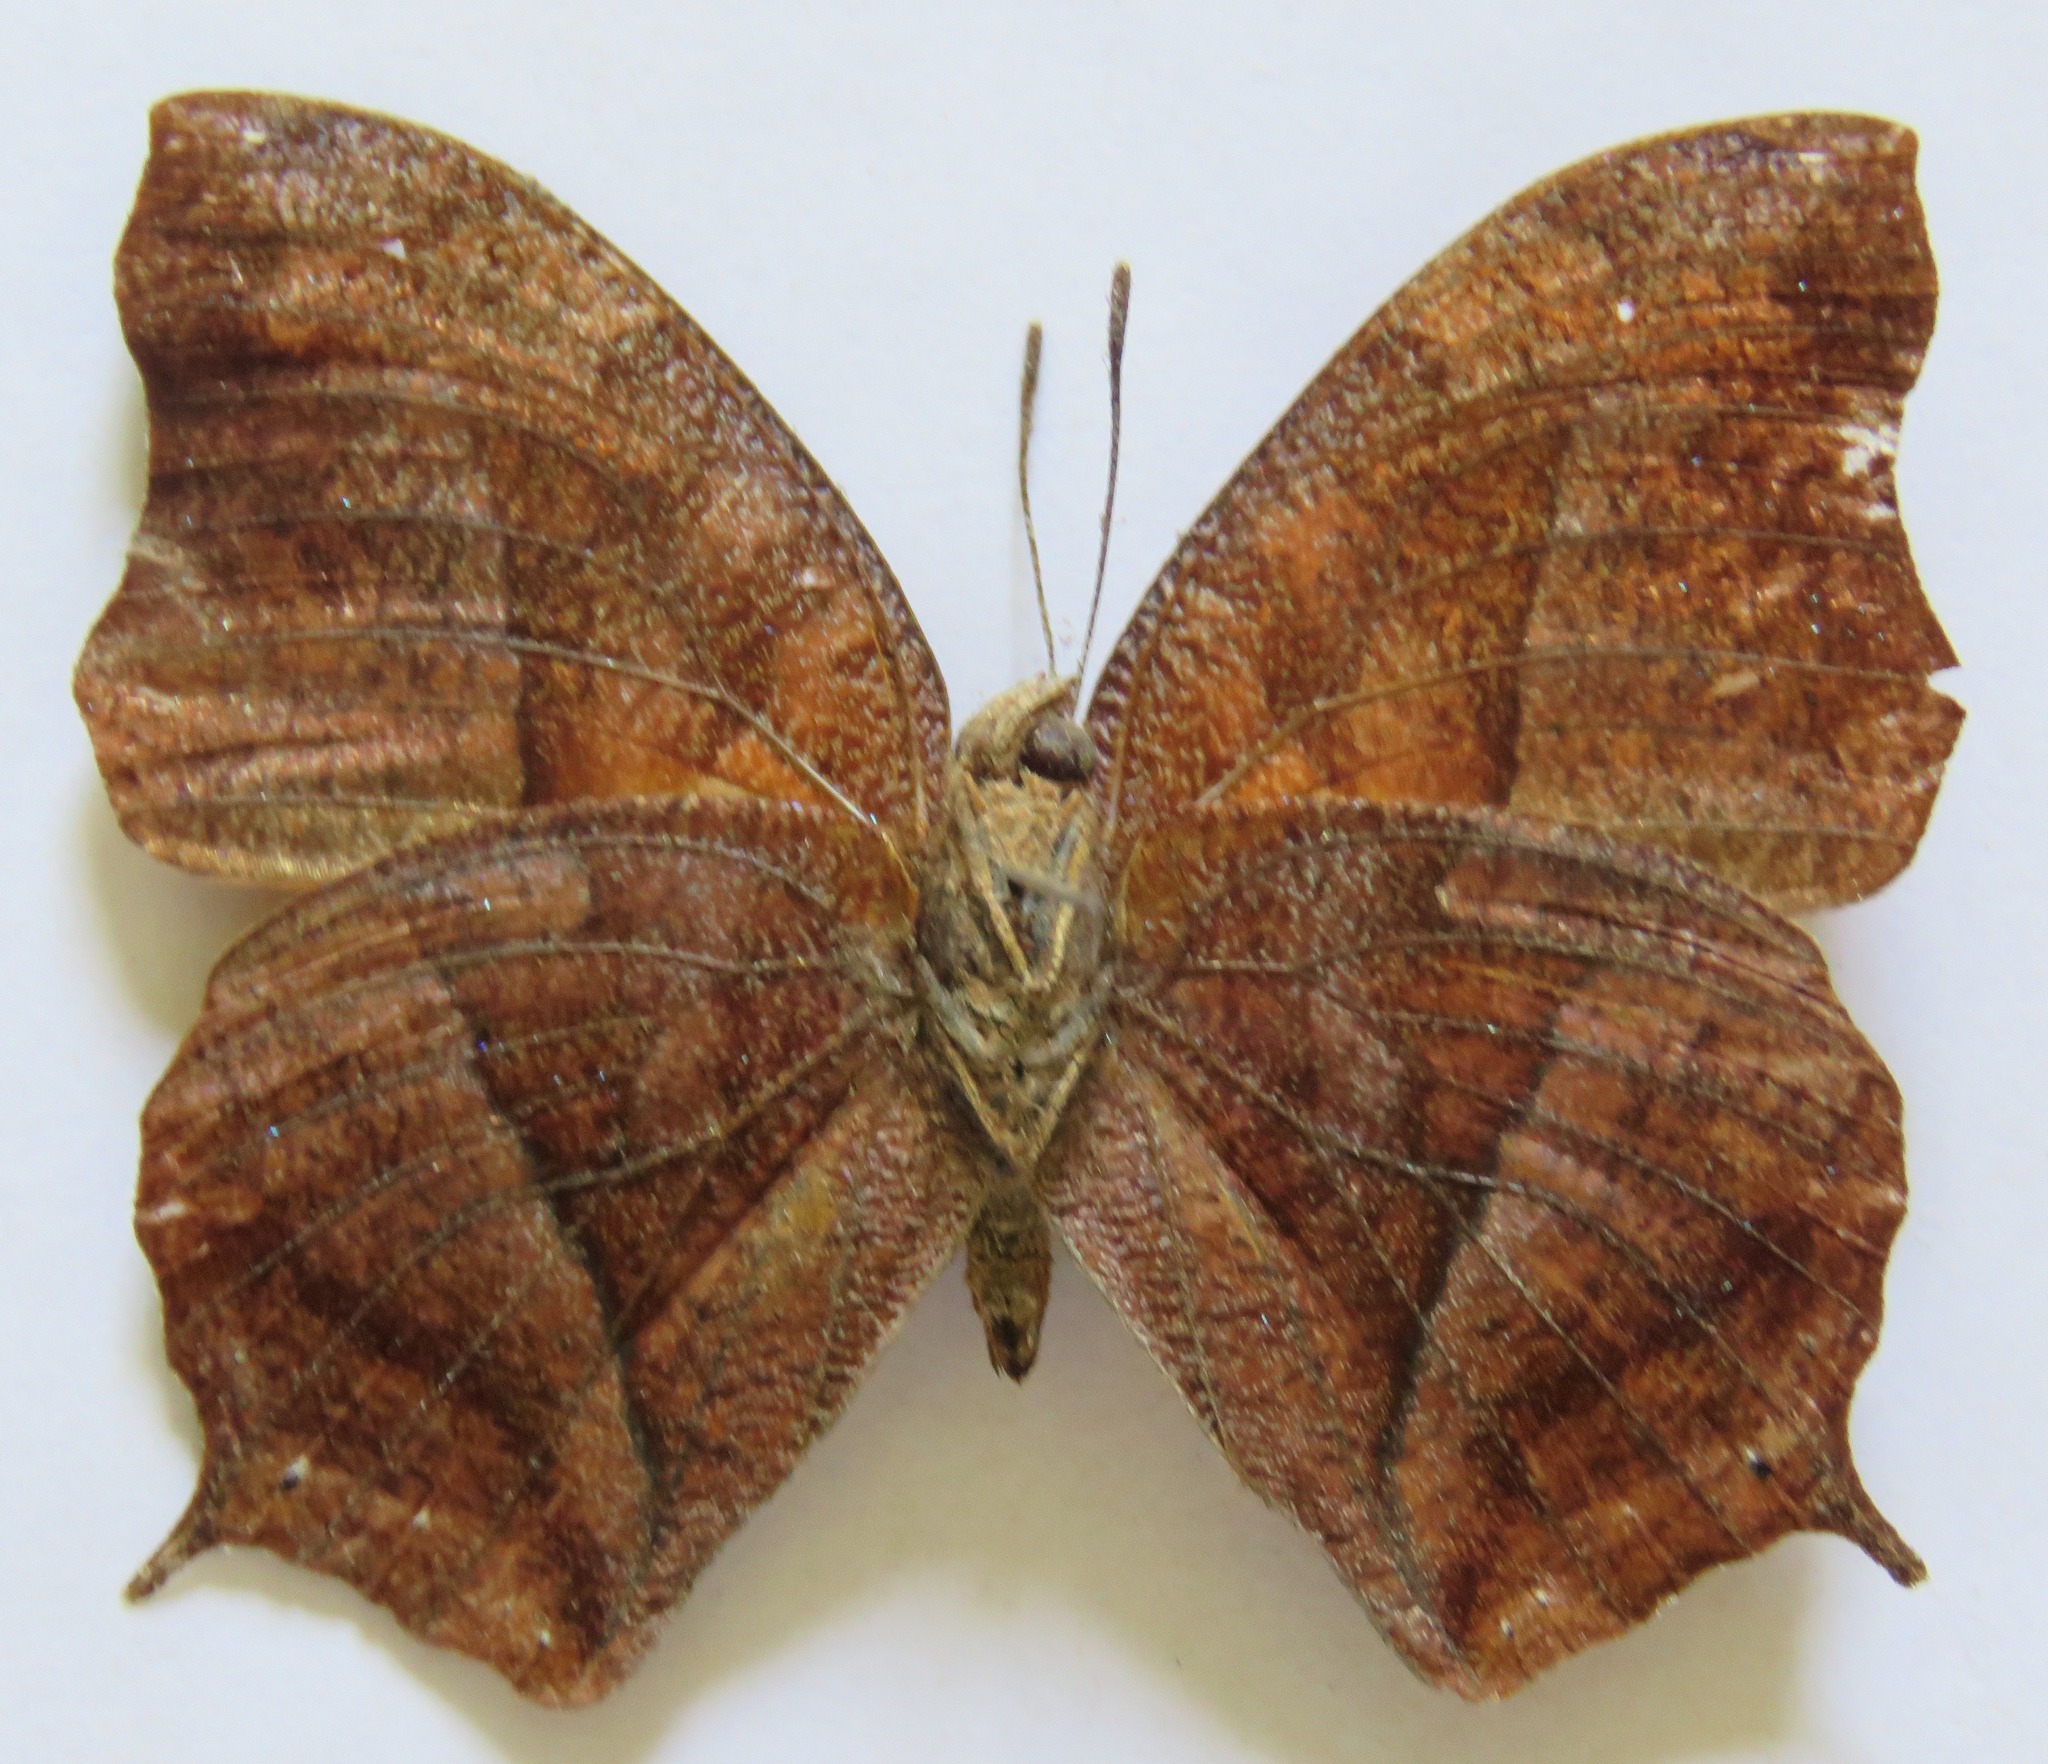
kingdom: Animalia
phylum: Arthropoda
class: Insecta
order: Lepidoptera
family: Nymphalidae
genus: Fountainea
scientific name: Fountainea
